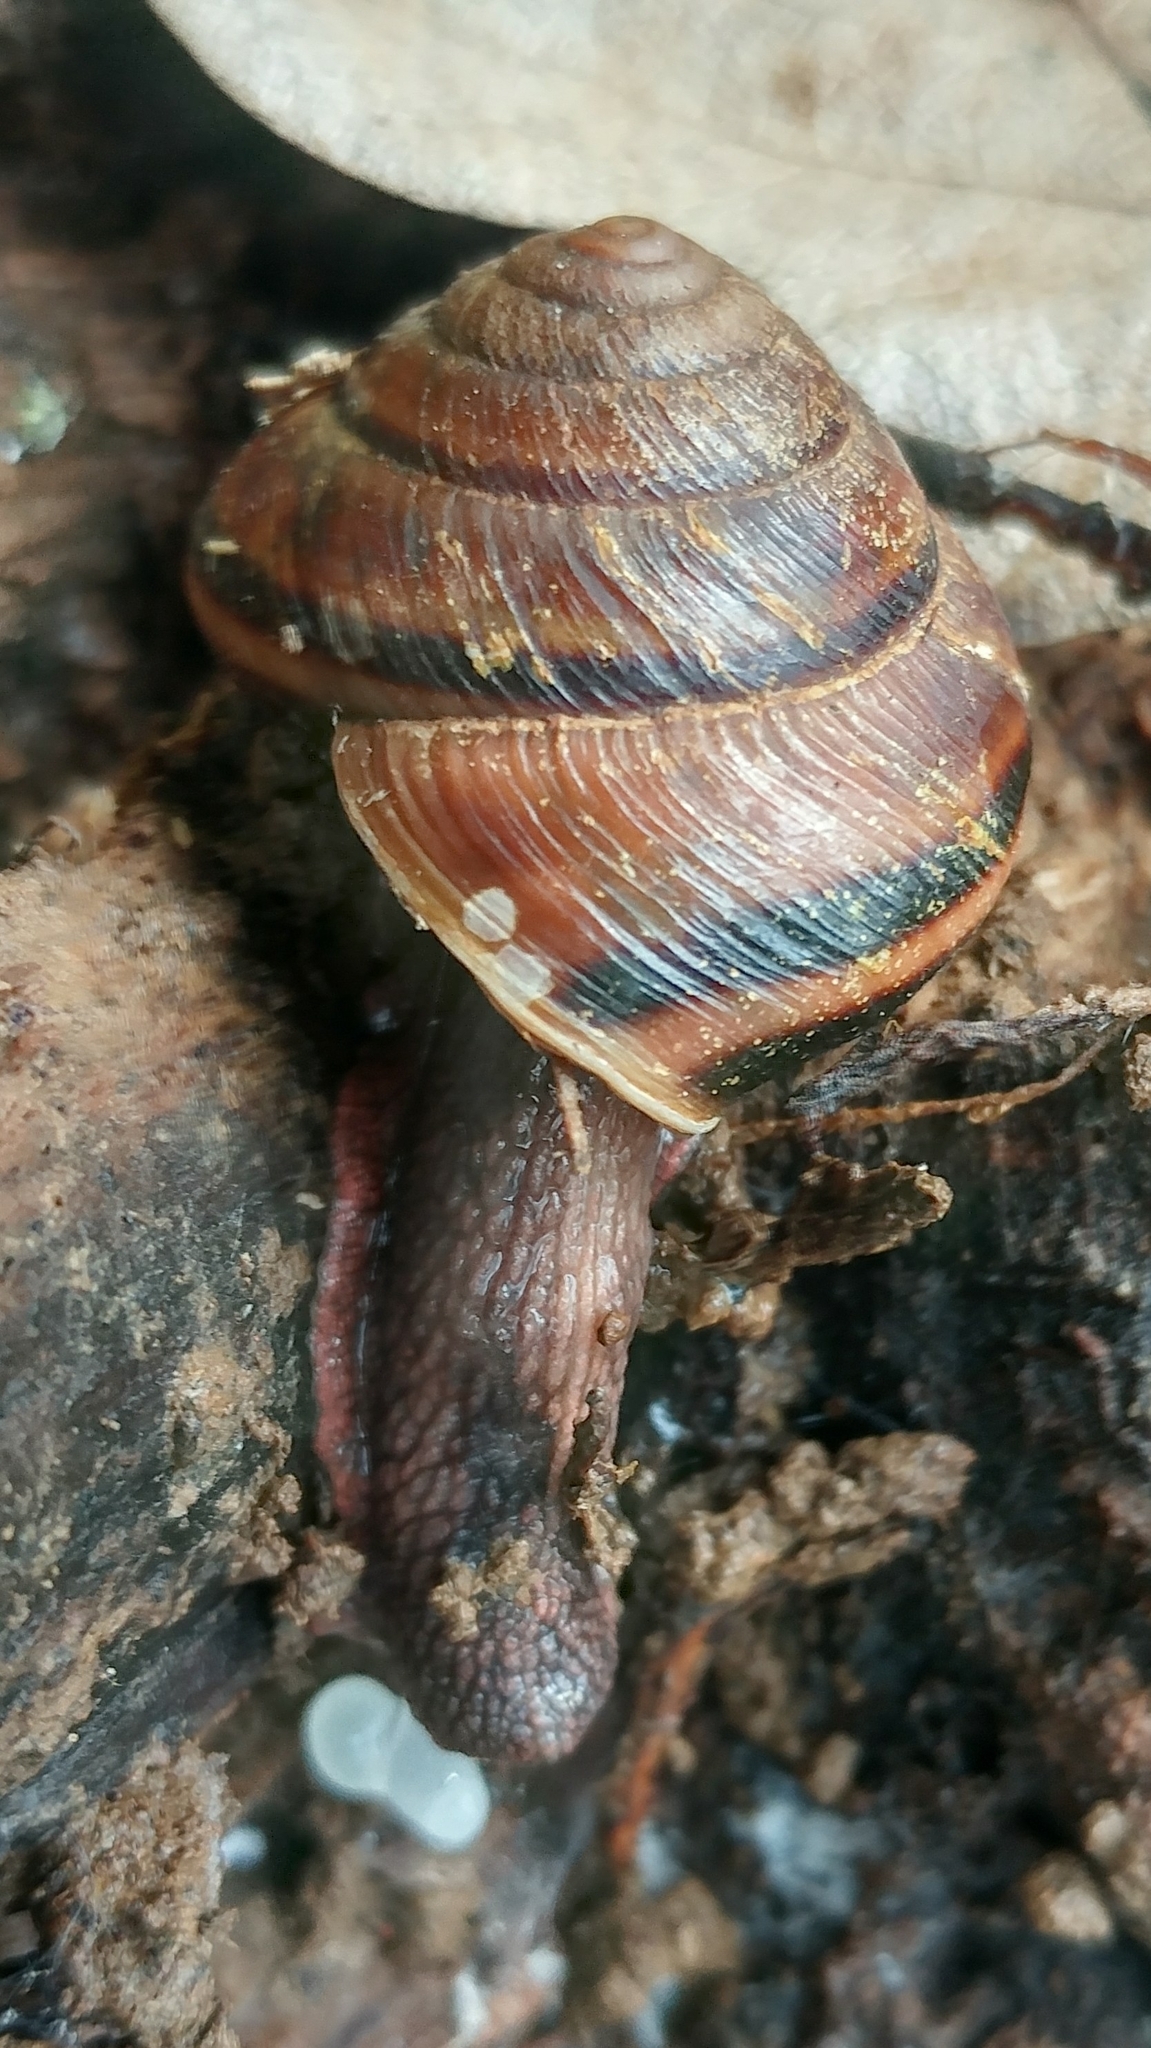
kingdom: Animalia
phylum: Mollusca
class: Gastropoda
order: Stylommatophora
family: Xanthonychidae
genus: Monadenia
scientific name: Monadenia fidelis
